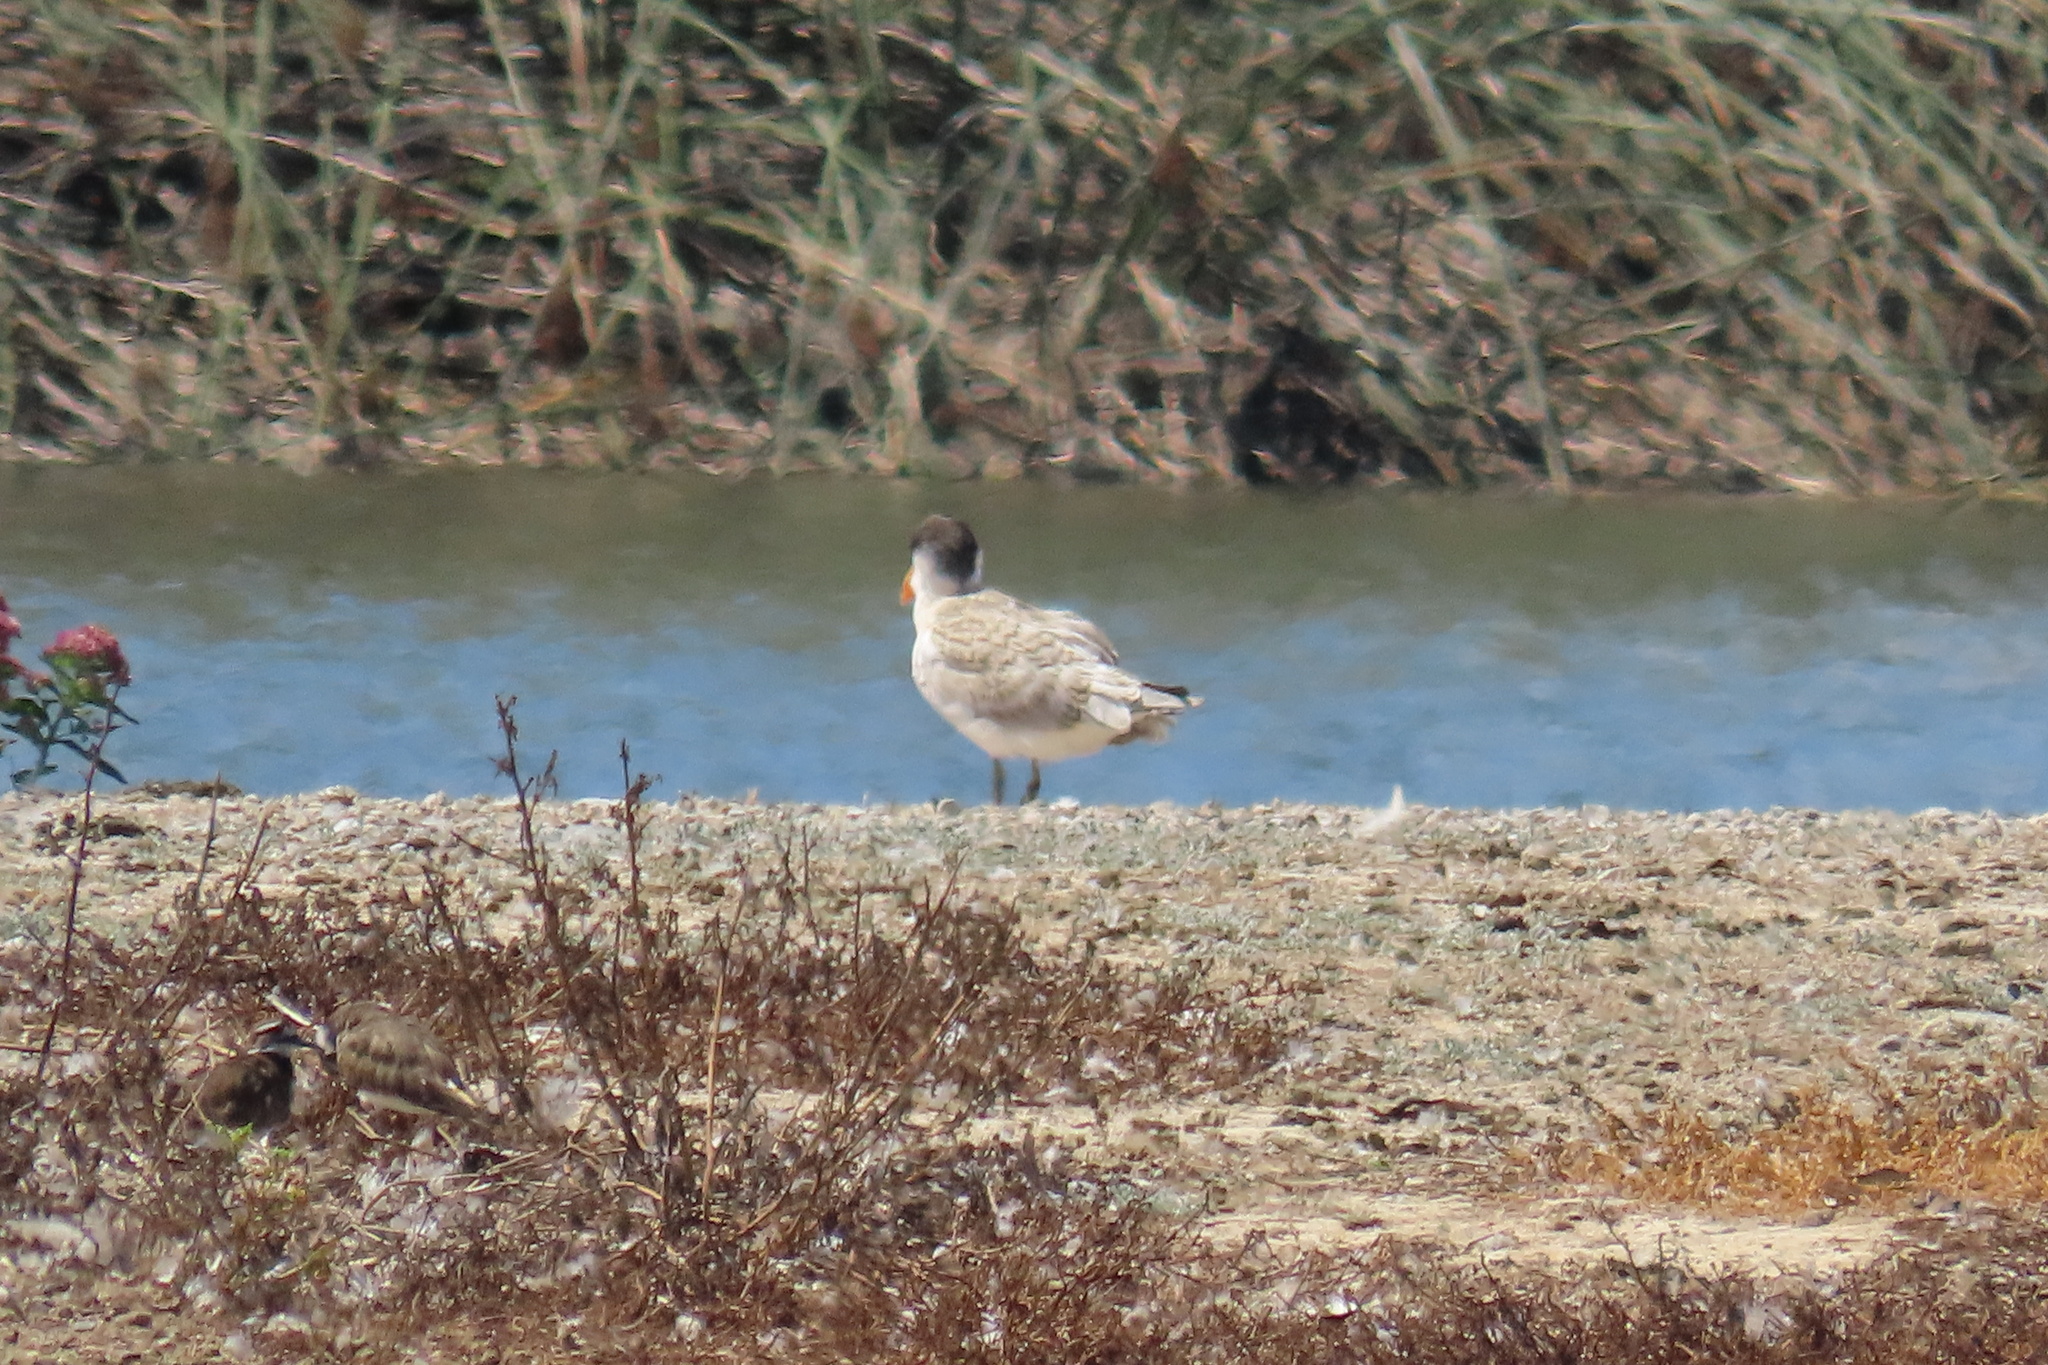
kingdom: Animalia
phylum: Chordata
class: Aves
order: Charadriiformes
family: Laridae
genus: Hydroprogne
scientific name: Hydroprogne caspia
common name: Caspian tern
